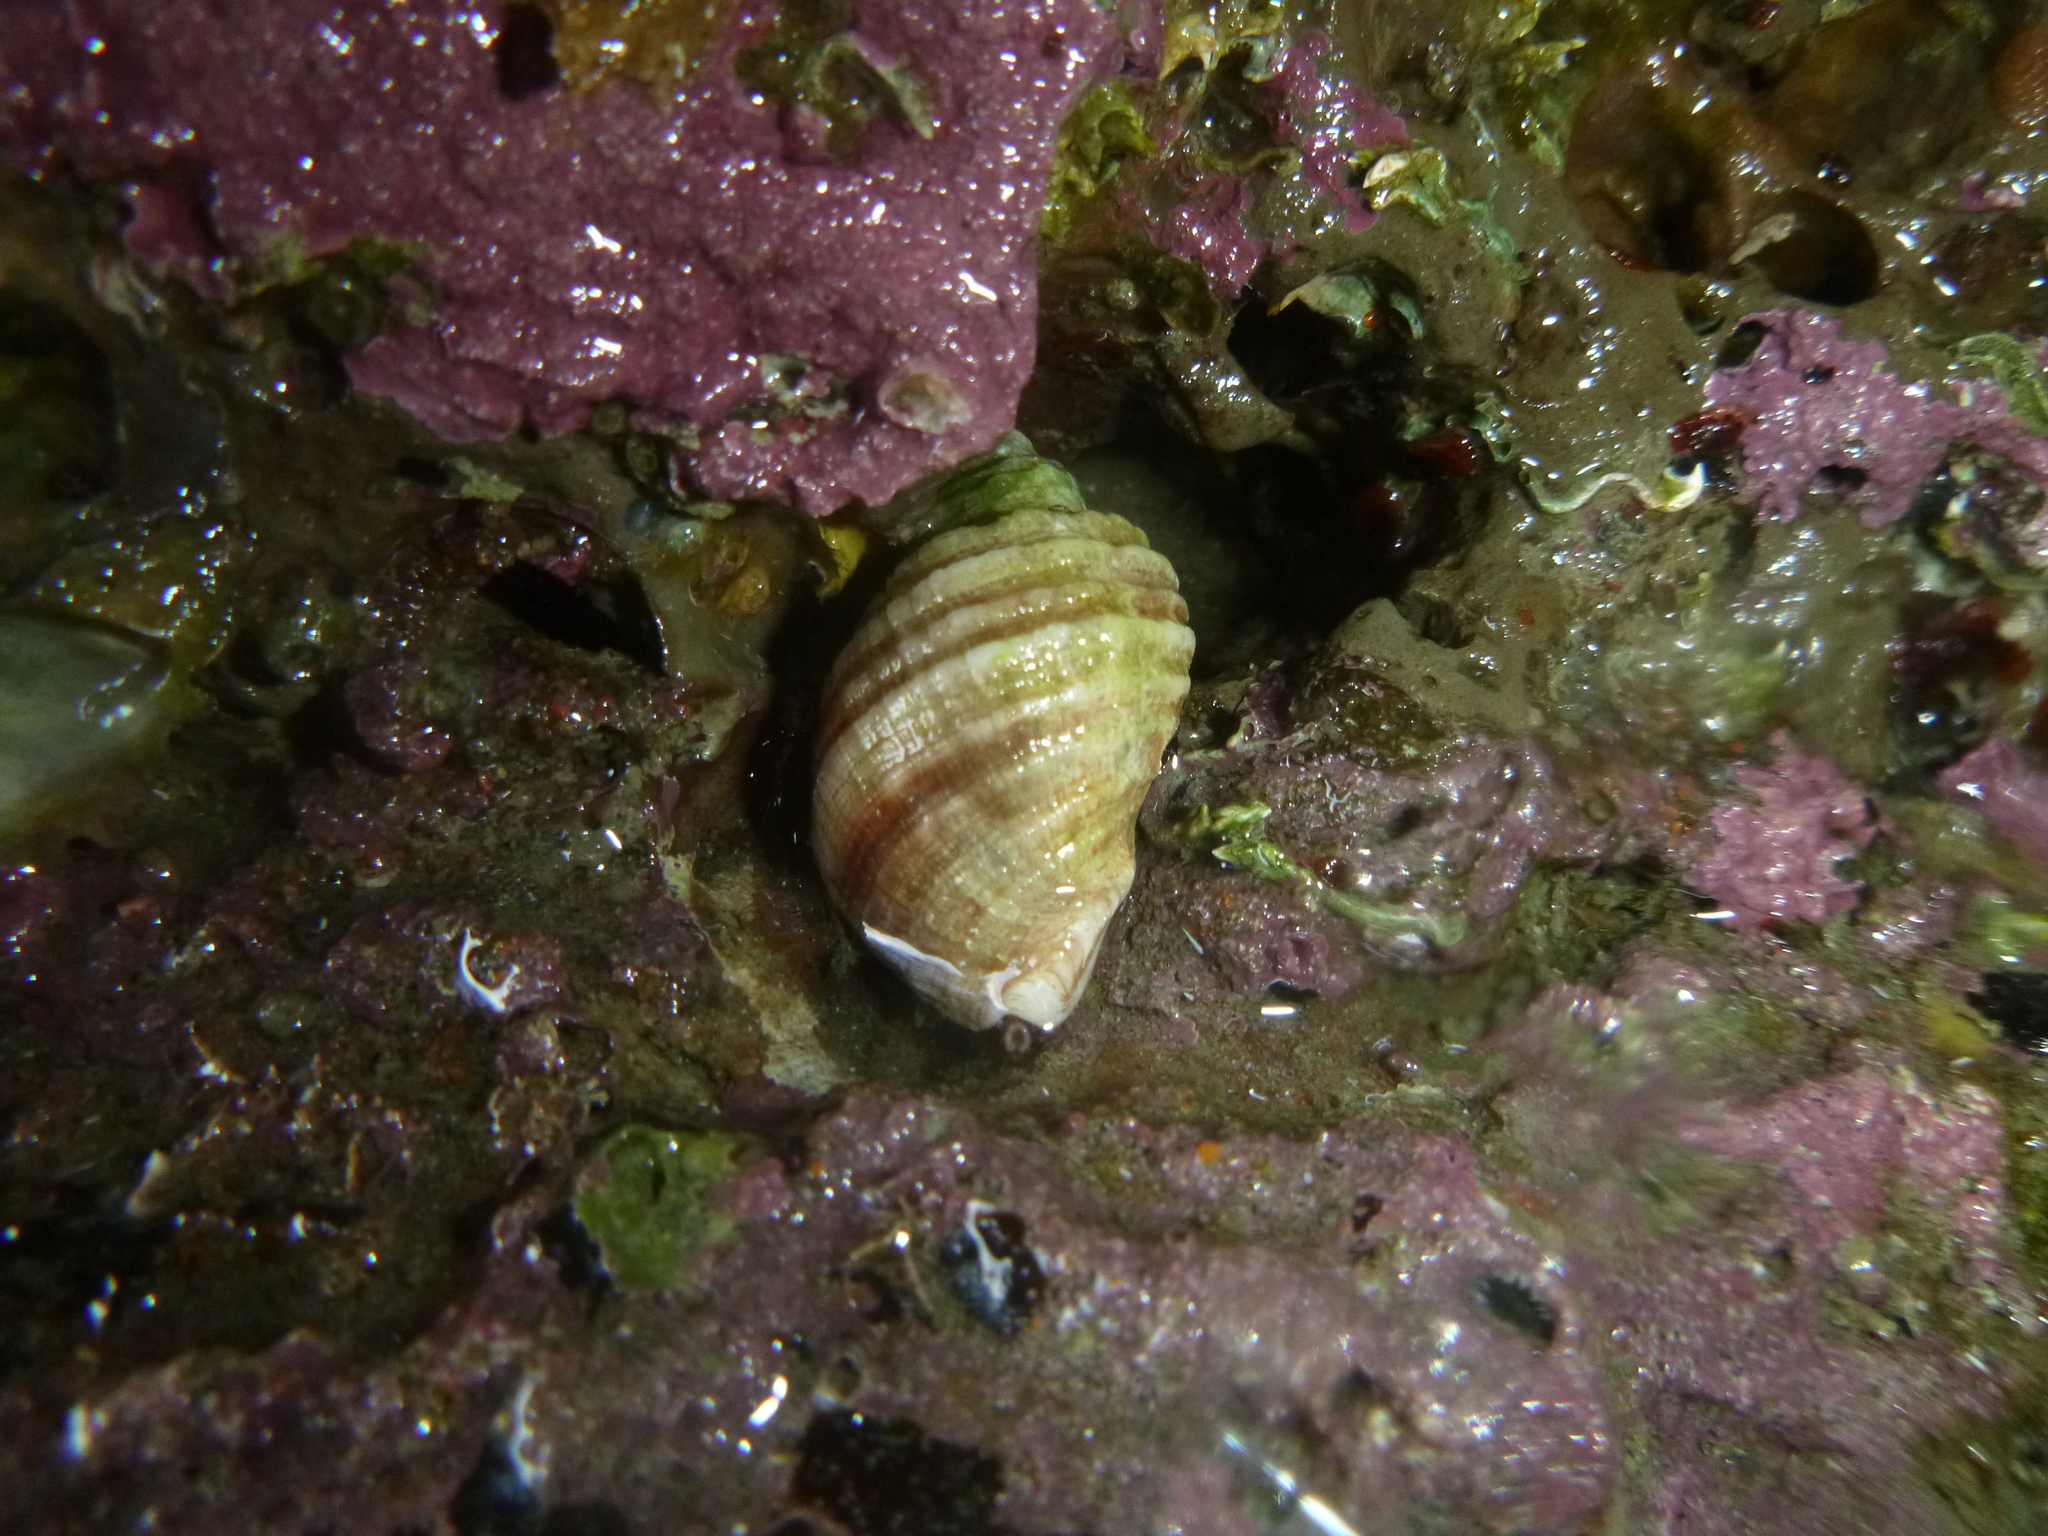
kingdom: Animalia
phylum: Mollusca
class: Gastropoda
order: Neogastropoda
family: Muricidae
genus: Dicathais
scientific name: Dicathais orbita
